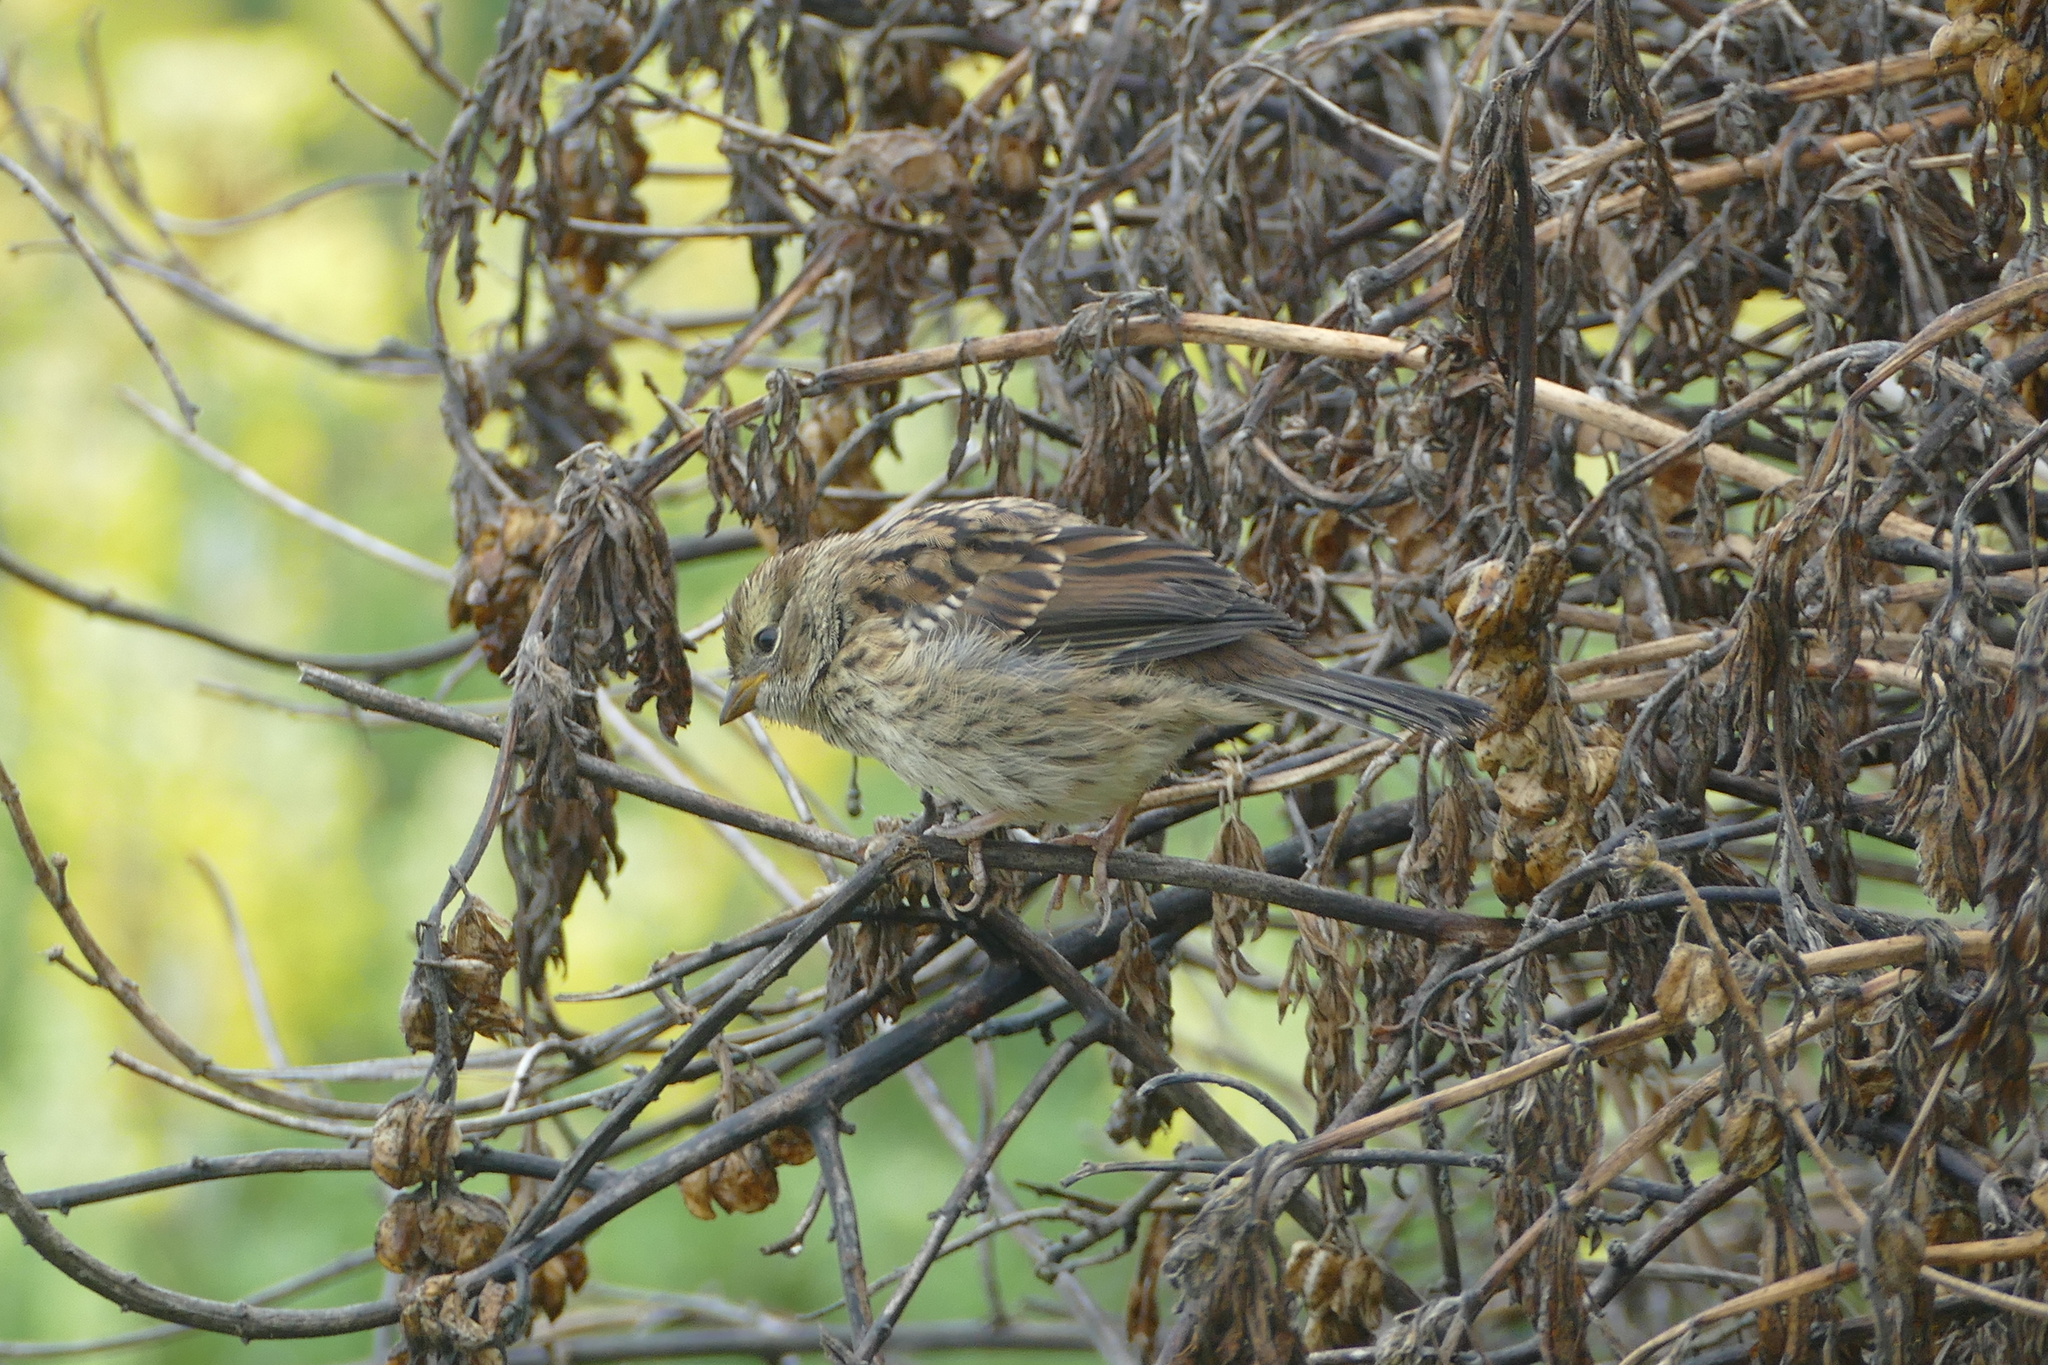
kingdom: Animalia
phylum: Chordata
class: Aves
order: Passeriformes
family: Passerellidae
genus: Zonotrichia
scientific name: Zonotrichia leucophrys
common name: White-crowned sparrow
